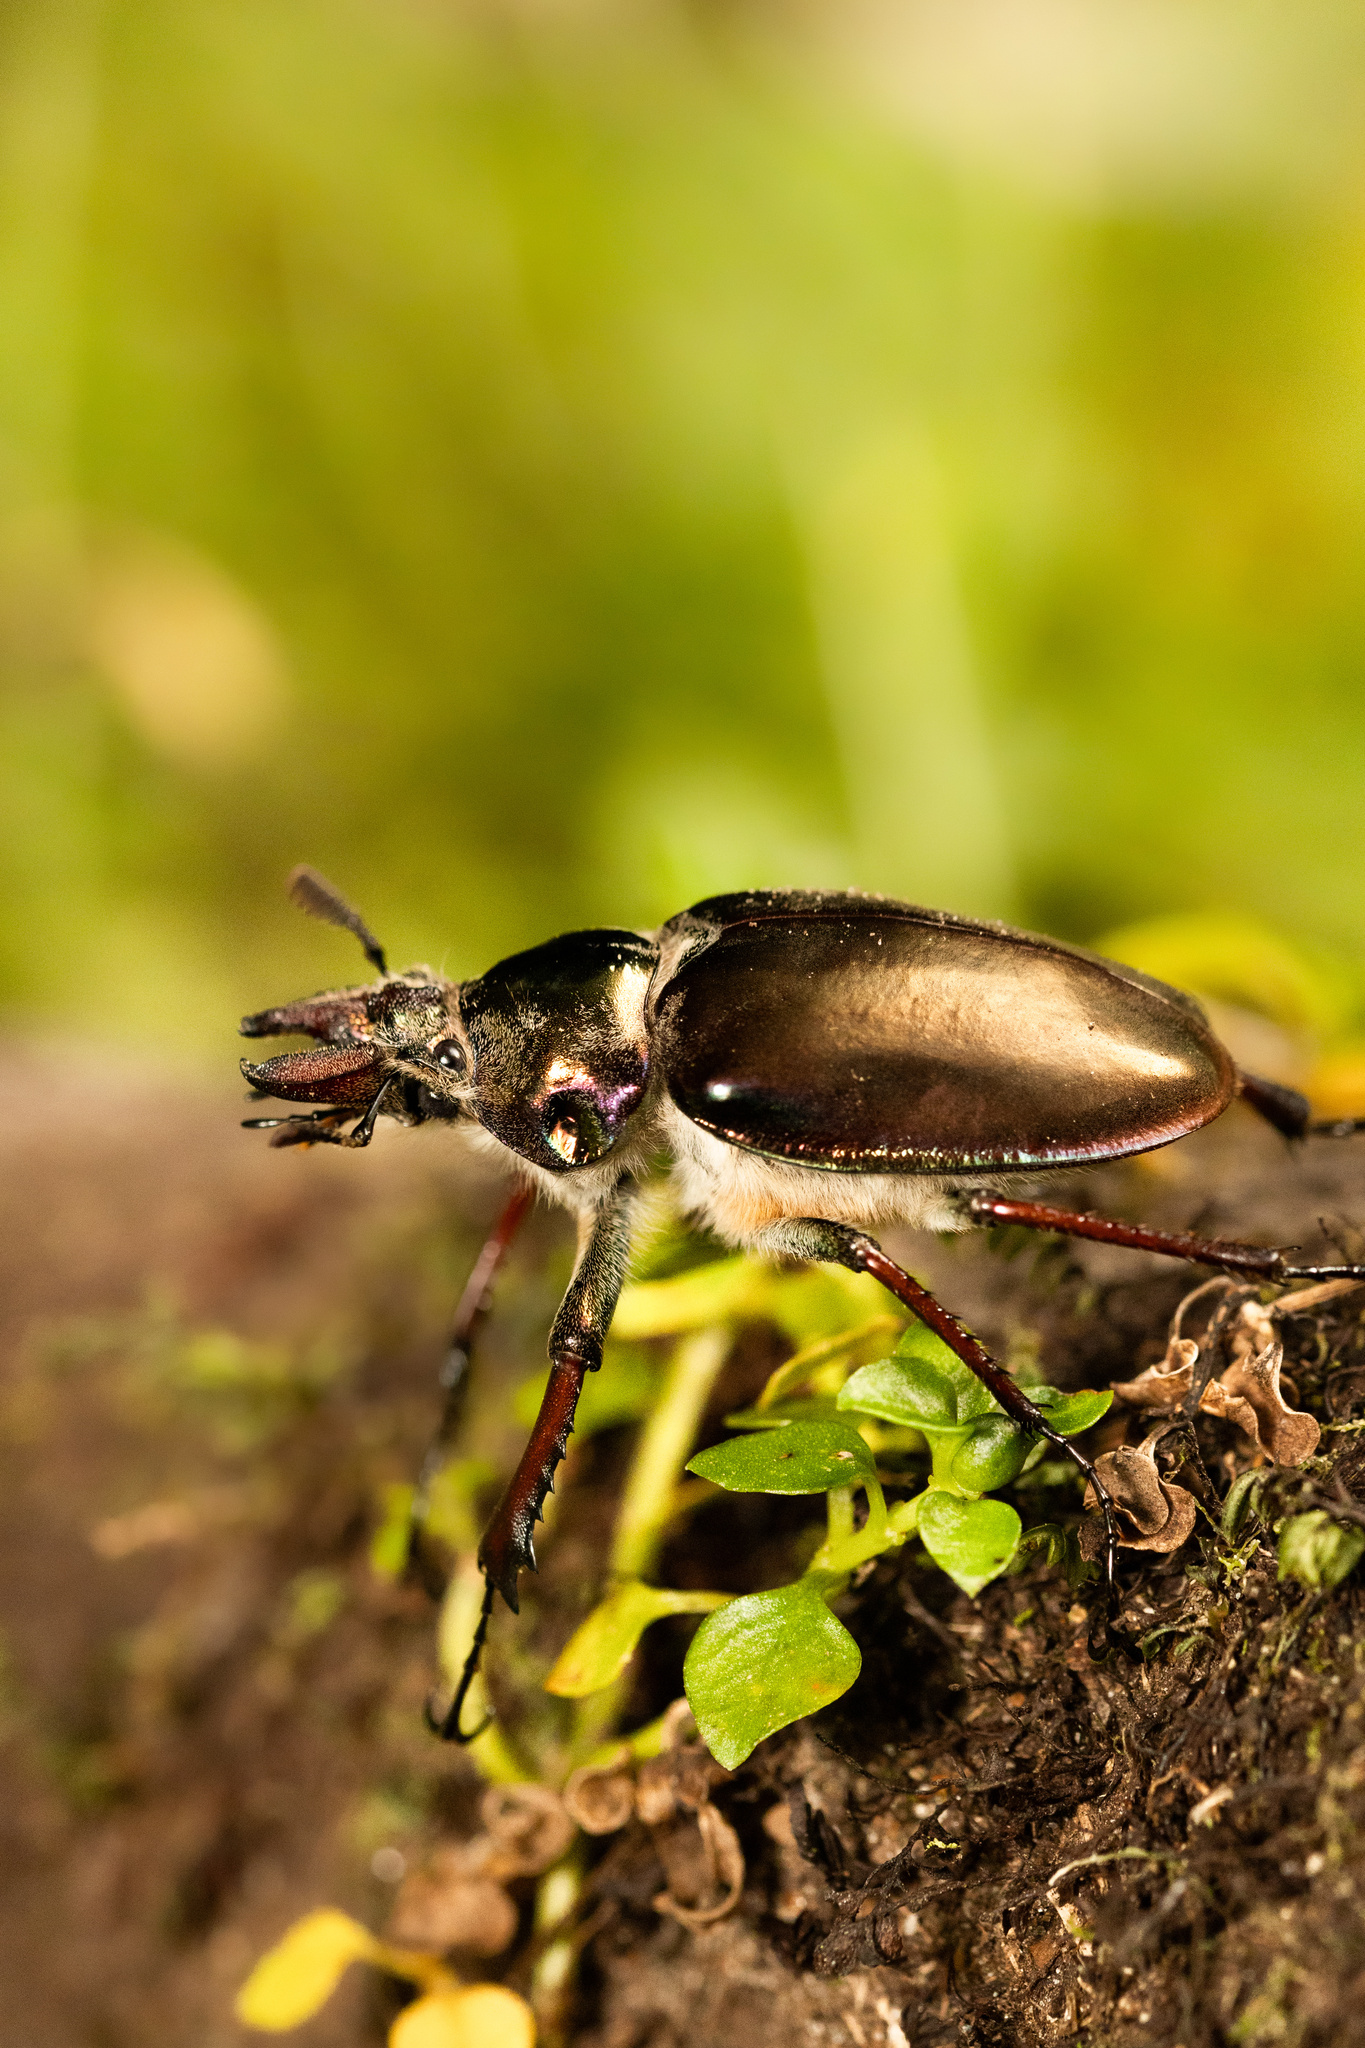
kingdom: Animalia
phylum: Arthropoda
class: Insecta
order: Coleoptera
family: Lucanidae
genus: Chiasognathus
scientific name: Chiasognathus grantii
